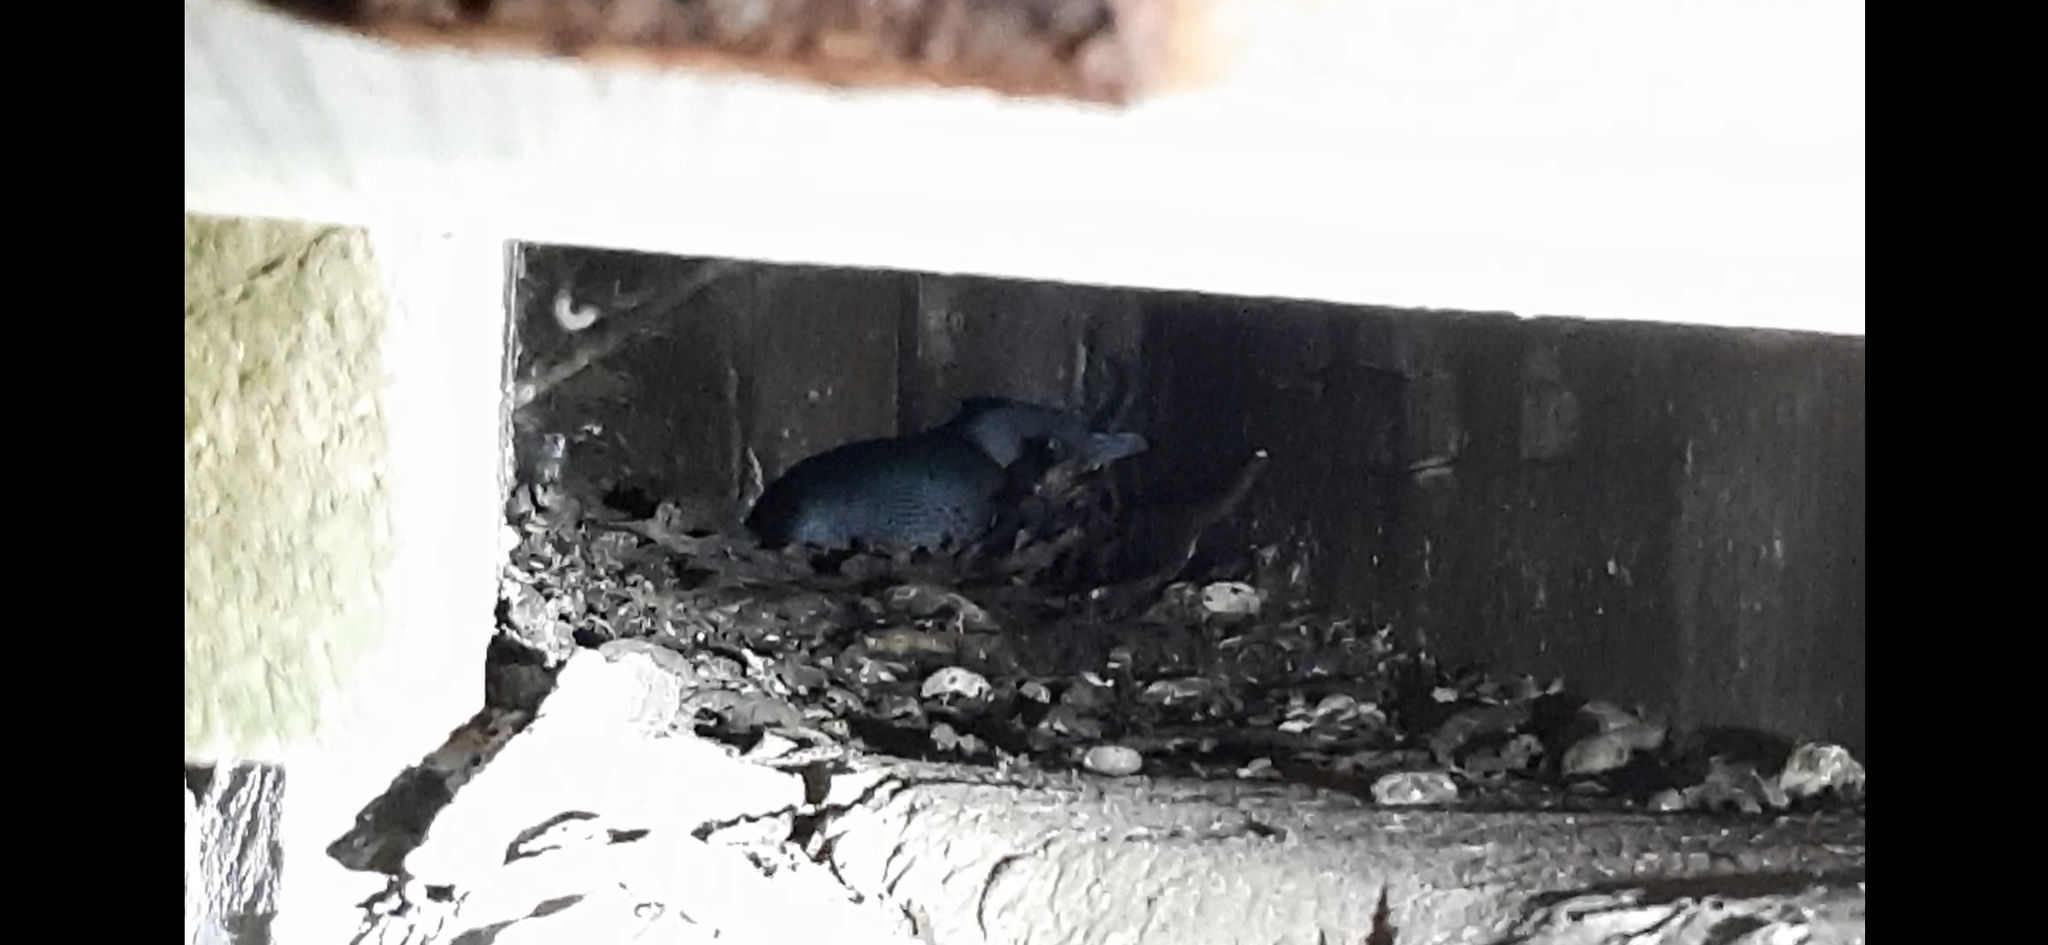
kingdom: Animalia
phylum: Chordata
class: Aves
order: Sphenisciformes
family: Spheniscidae
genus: Eudyptula
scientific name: Eudyptula minor
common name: Little penguin
